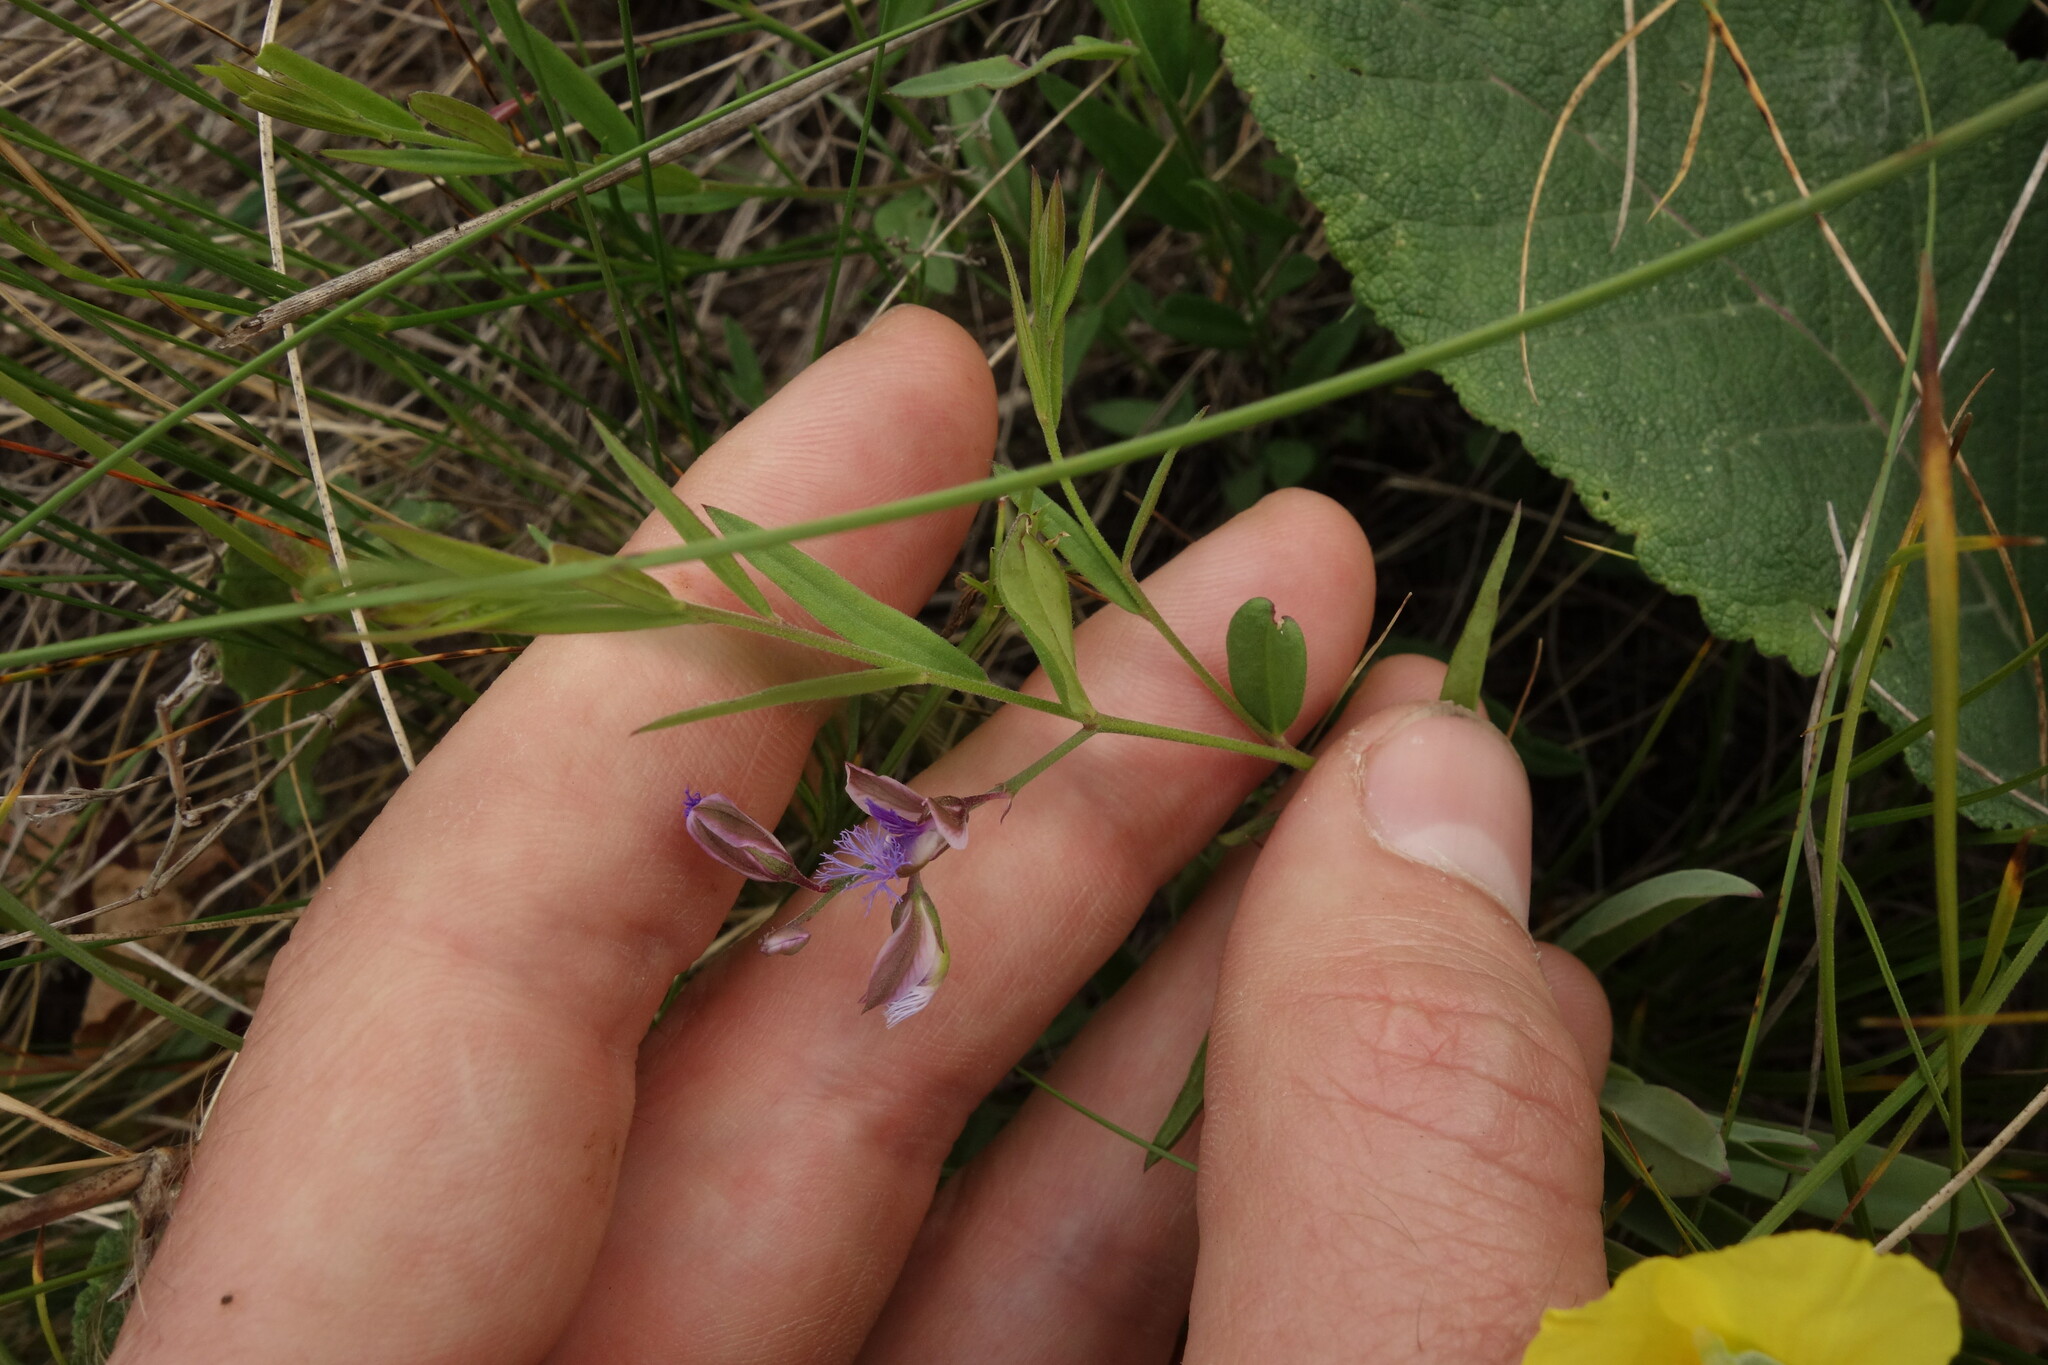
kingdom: Plantae
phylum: Tracheophyta
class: Magnoliopsida
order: Fabales
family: Polygalaceae
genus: Polygala
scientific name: Polygala sibirica
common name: Siberian polygala
